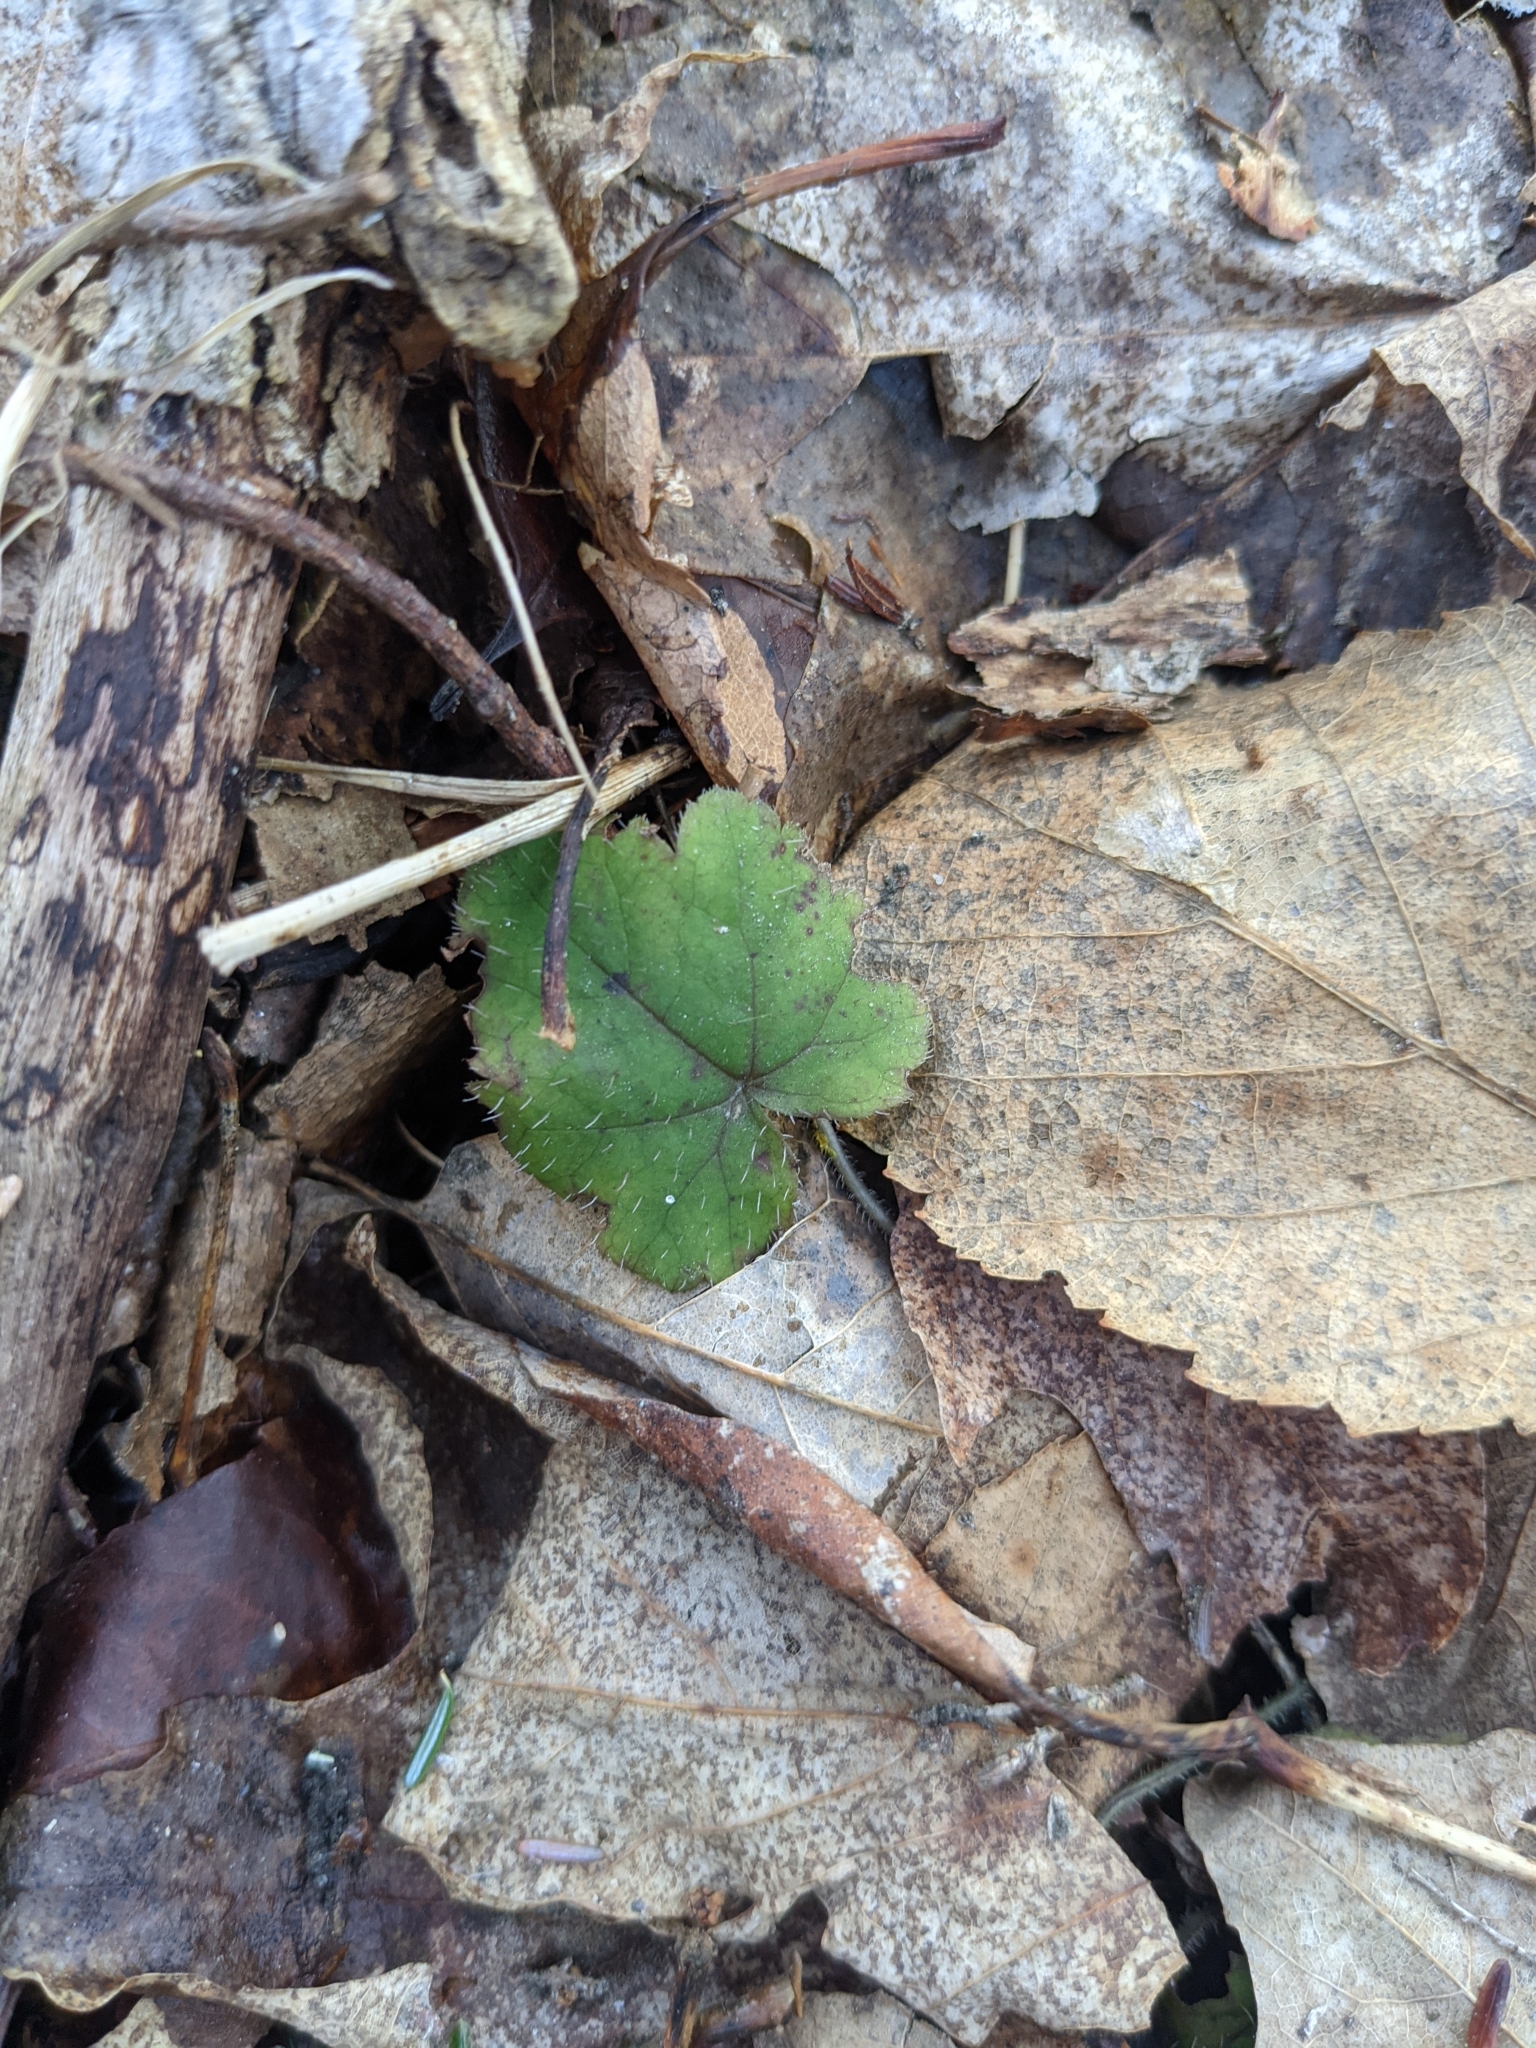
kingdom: Plantae
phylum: Tracheophyta
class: Magnoliopsida
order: Saxifragales
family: Saxifragaceae
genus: Tiarella
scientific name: Tiarella stolonifera
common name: Stoloniferous foamflower
